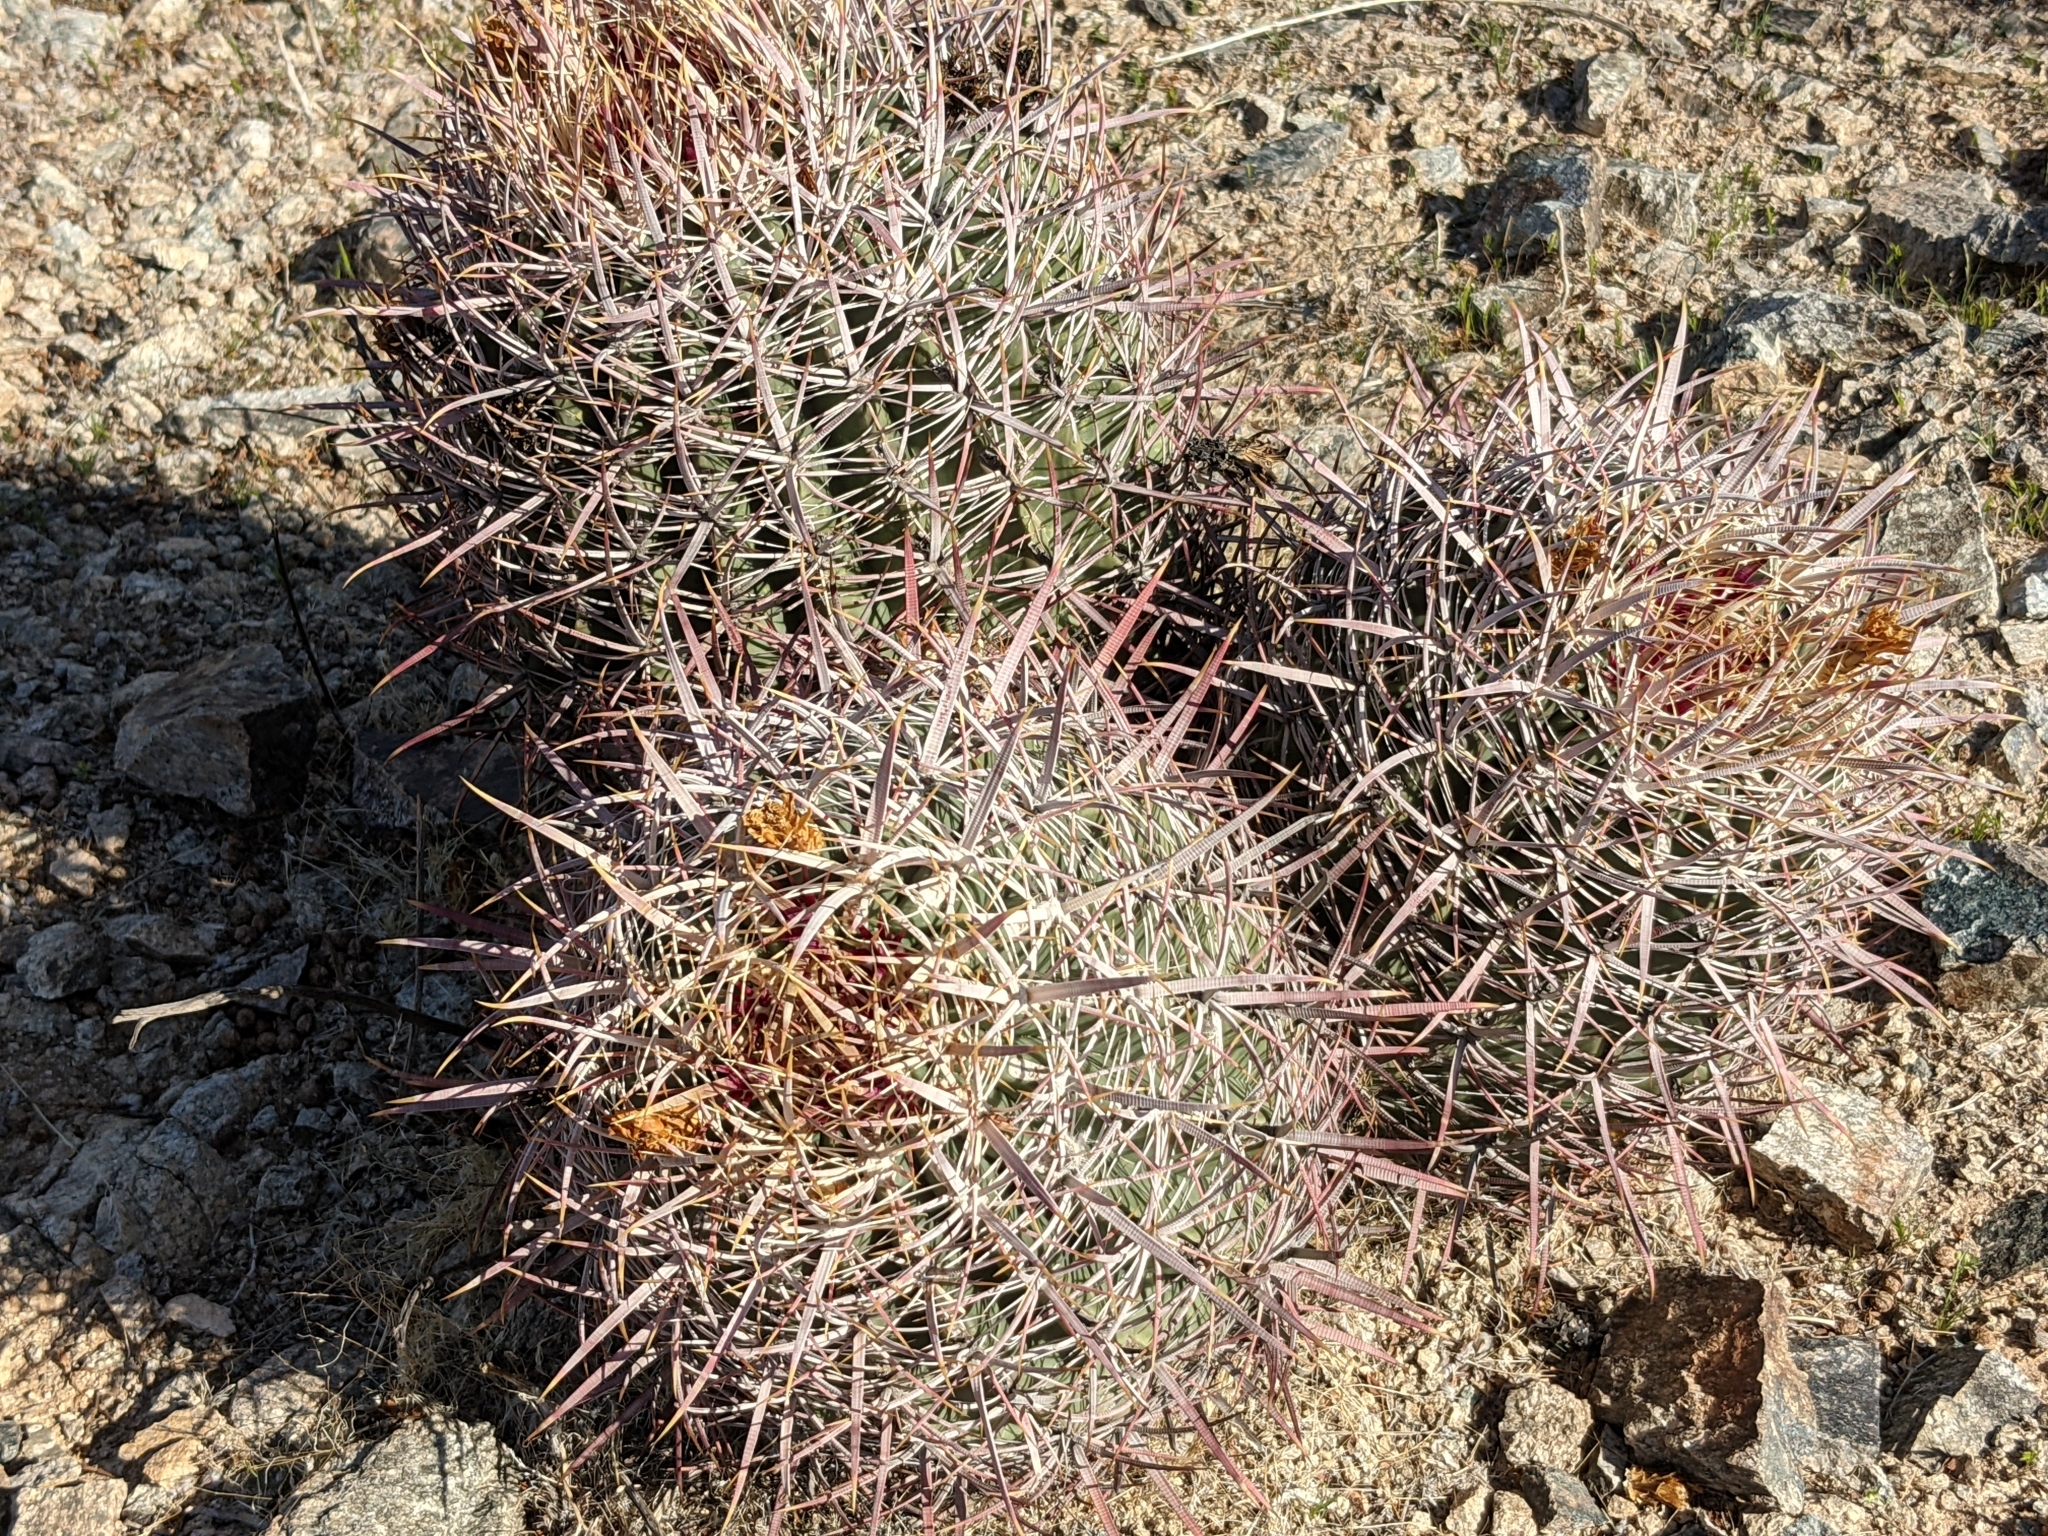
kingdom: Plantae
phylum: Tracheophyta
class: Magnoliopsida
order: Caryophyllales
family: Cactaceae
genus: Ferocactus
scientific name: Ferocactus cylindraceus
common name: California barrel cactus
